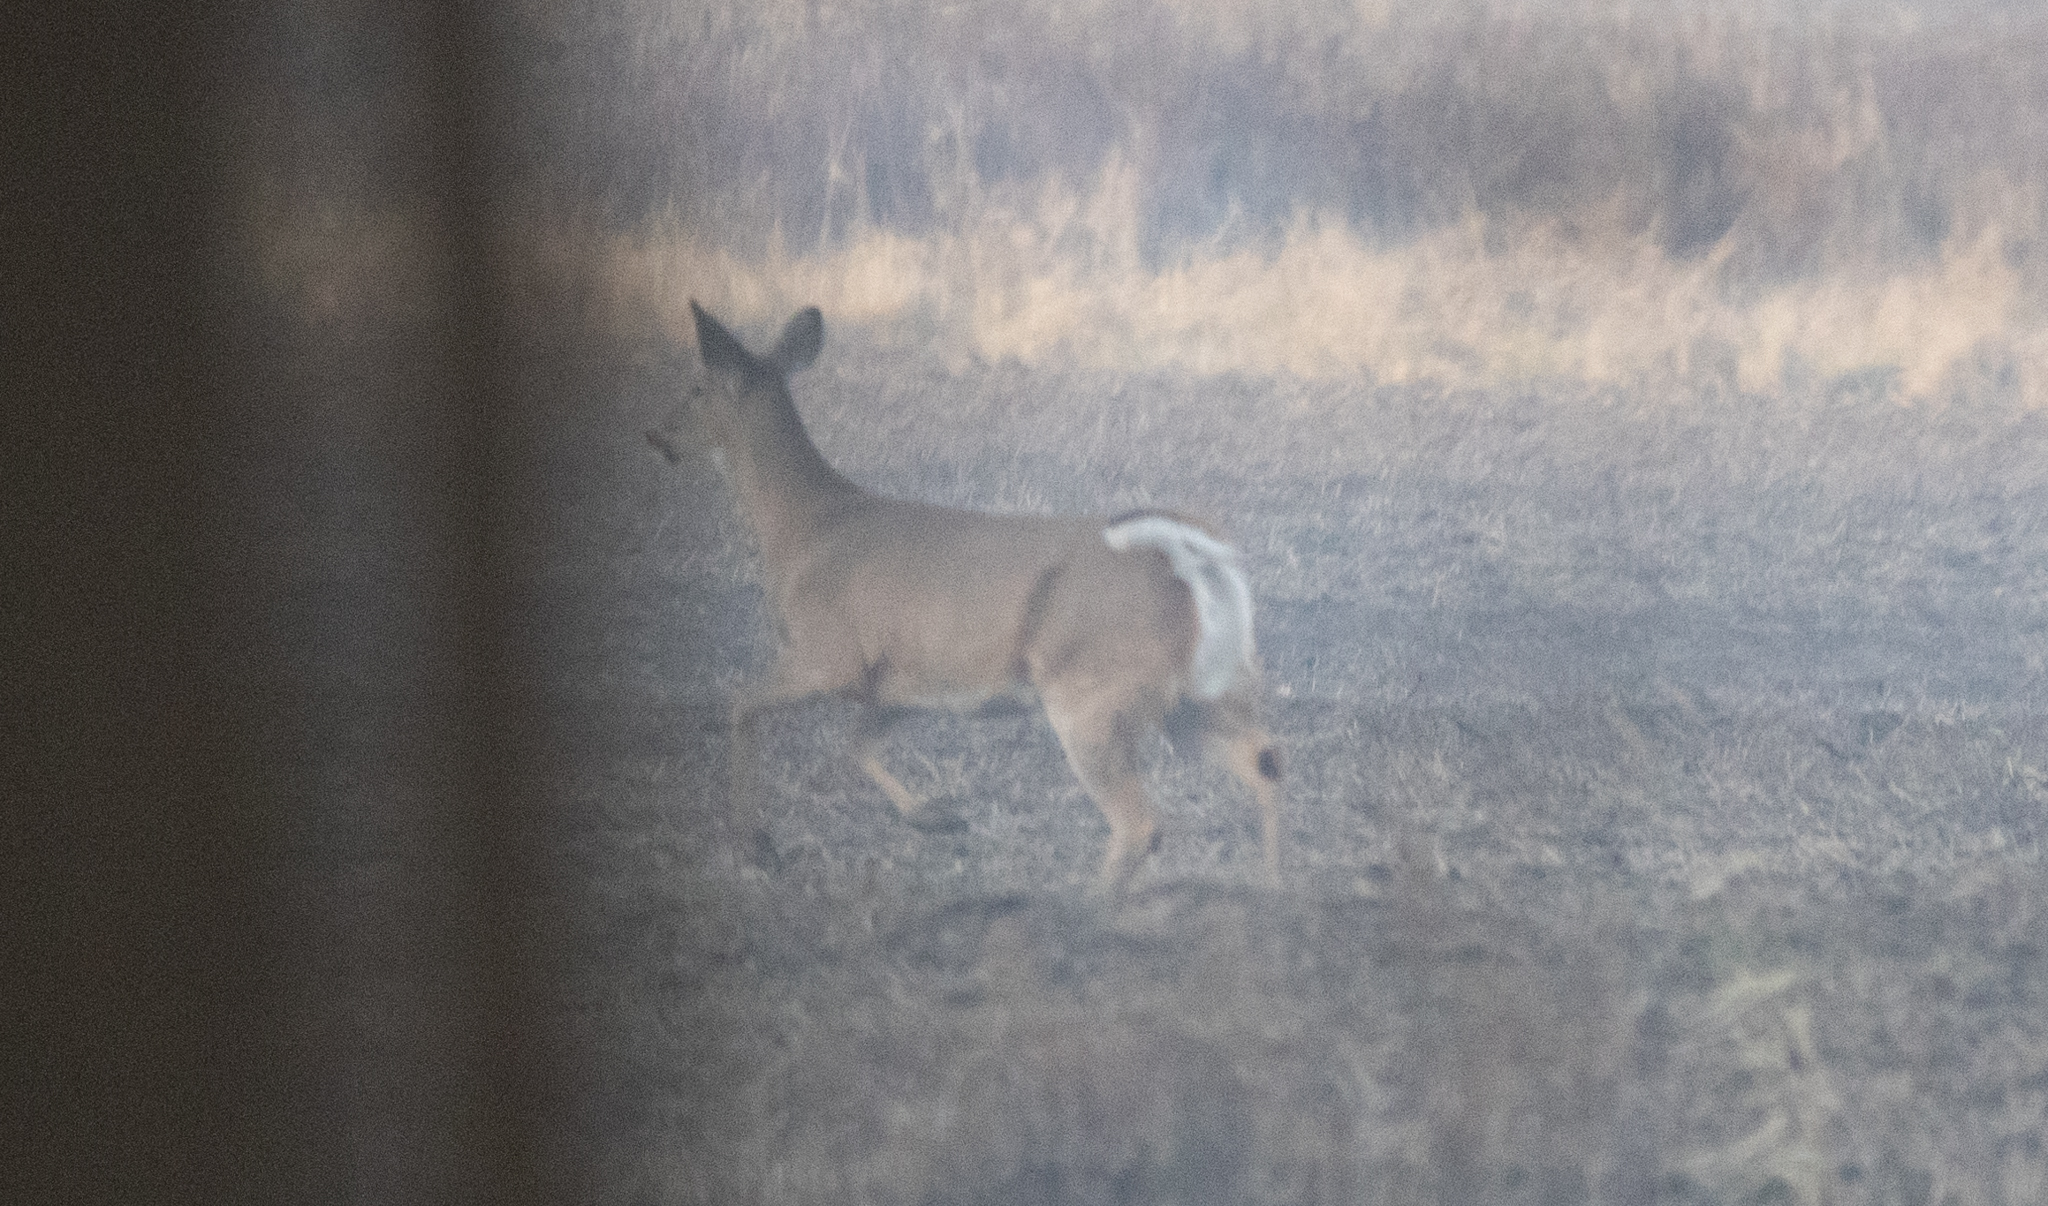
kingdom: Animalia
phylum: Chordata
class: Mammalia
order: Artiodactyla
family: Cervidae
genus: Odocoileus
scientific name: Odocoileus virginianus
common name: White-tailed deer
